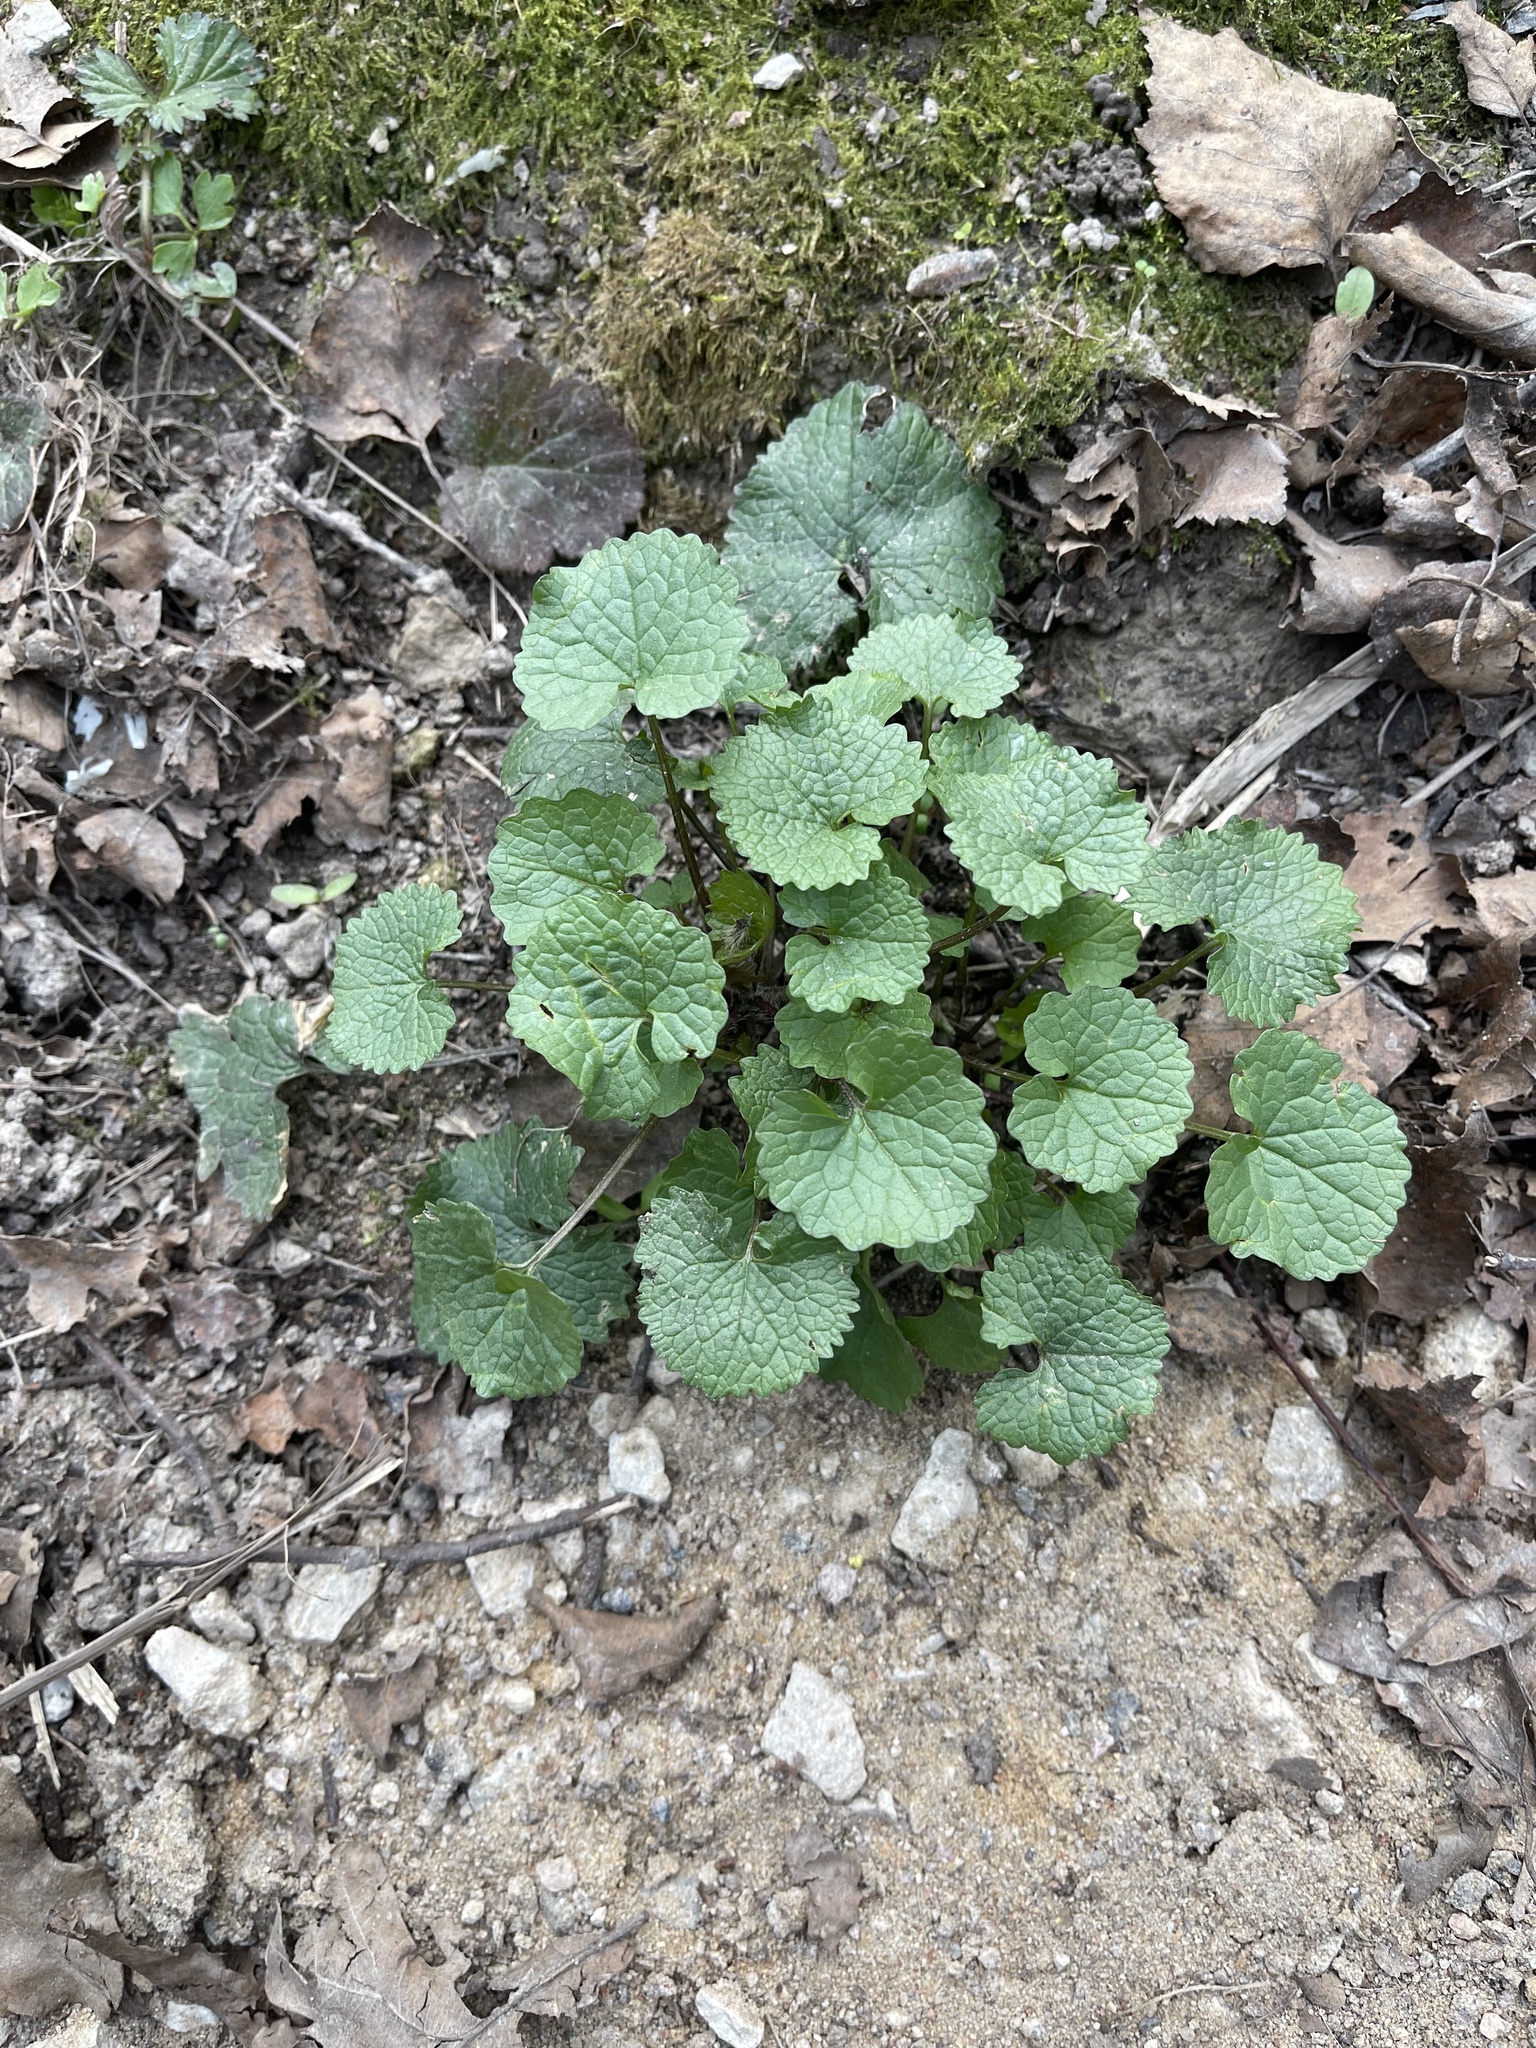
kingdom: Plantae
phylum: Tracheophyta
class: Magnoliopsida
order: Brassicales
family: Brassicaceae
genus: Alliaria
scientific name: Alliaria petiolata
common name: Garlic mustard
